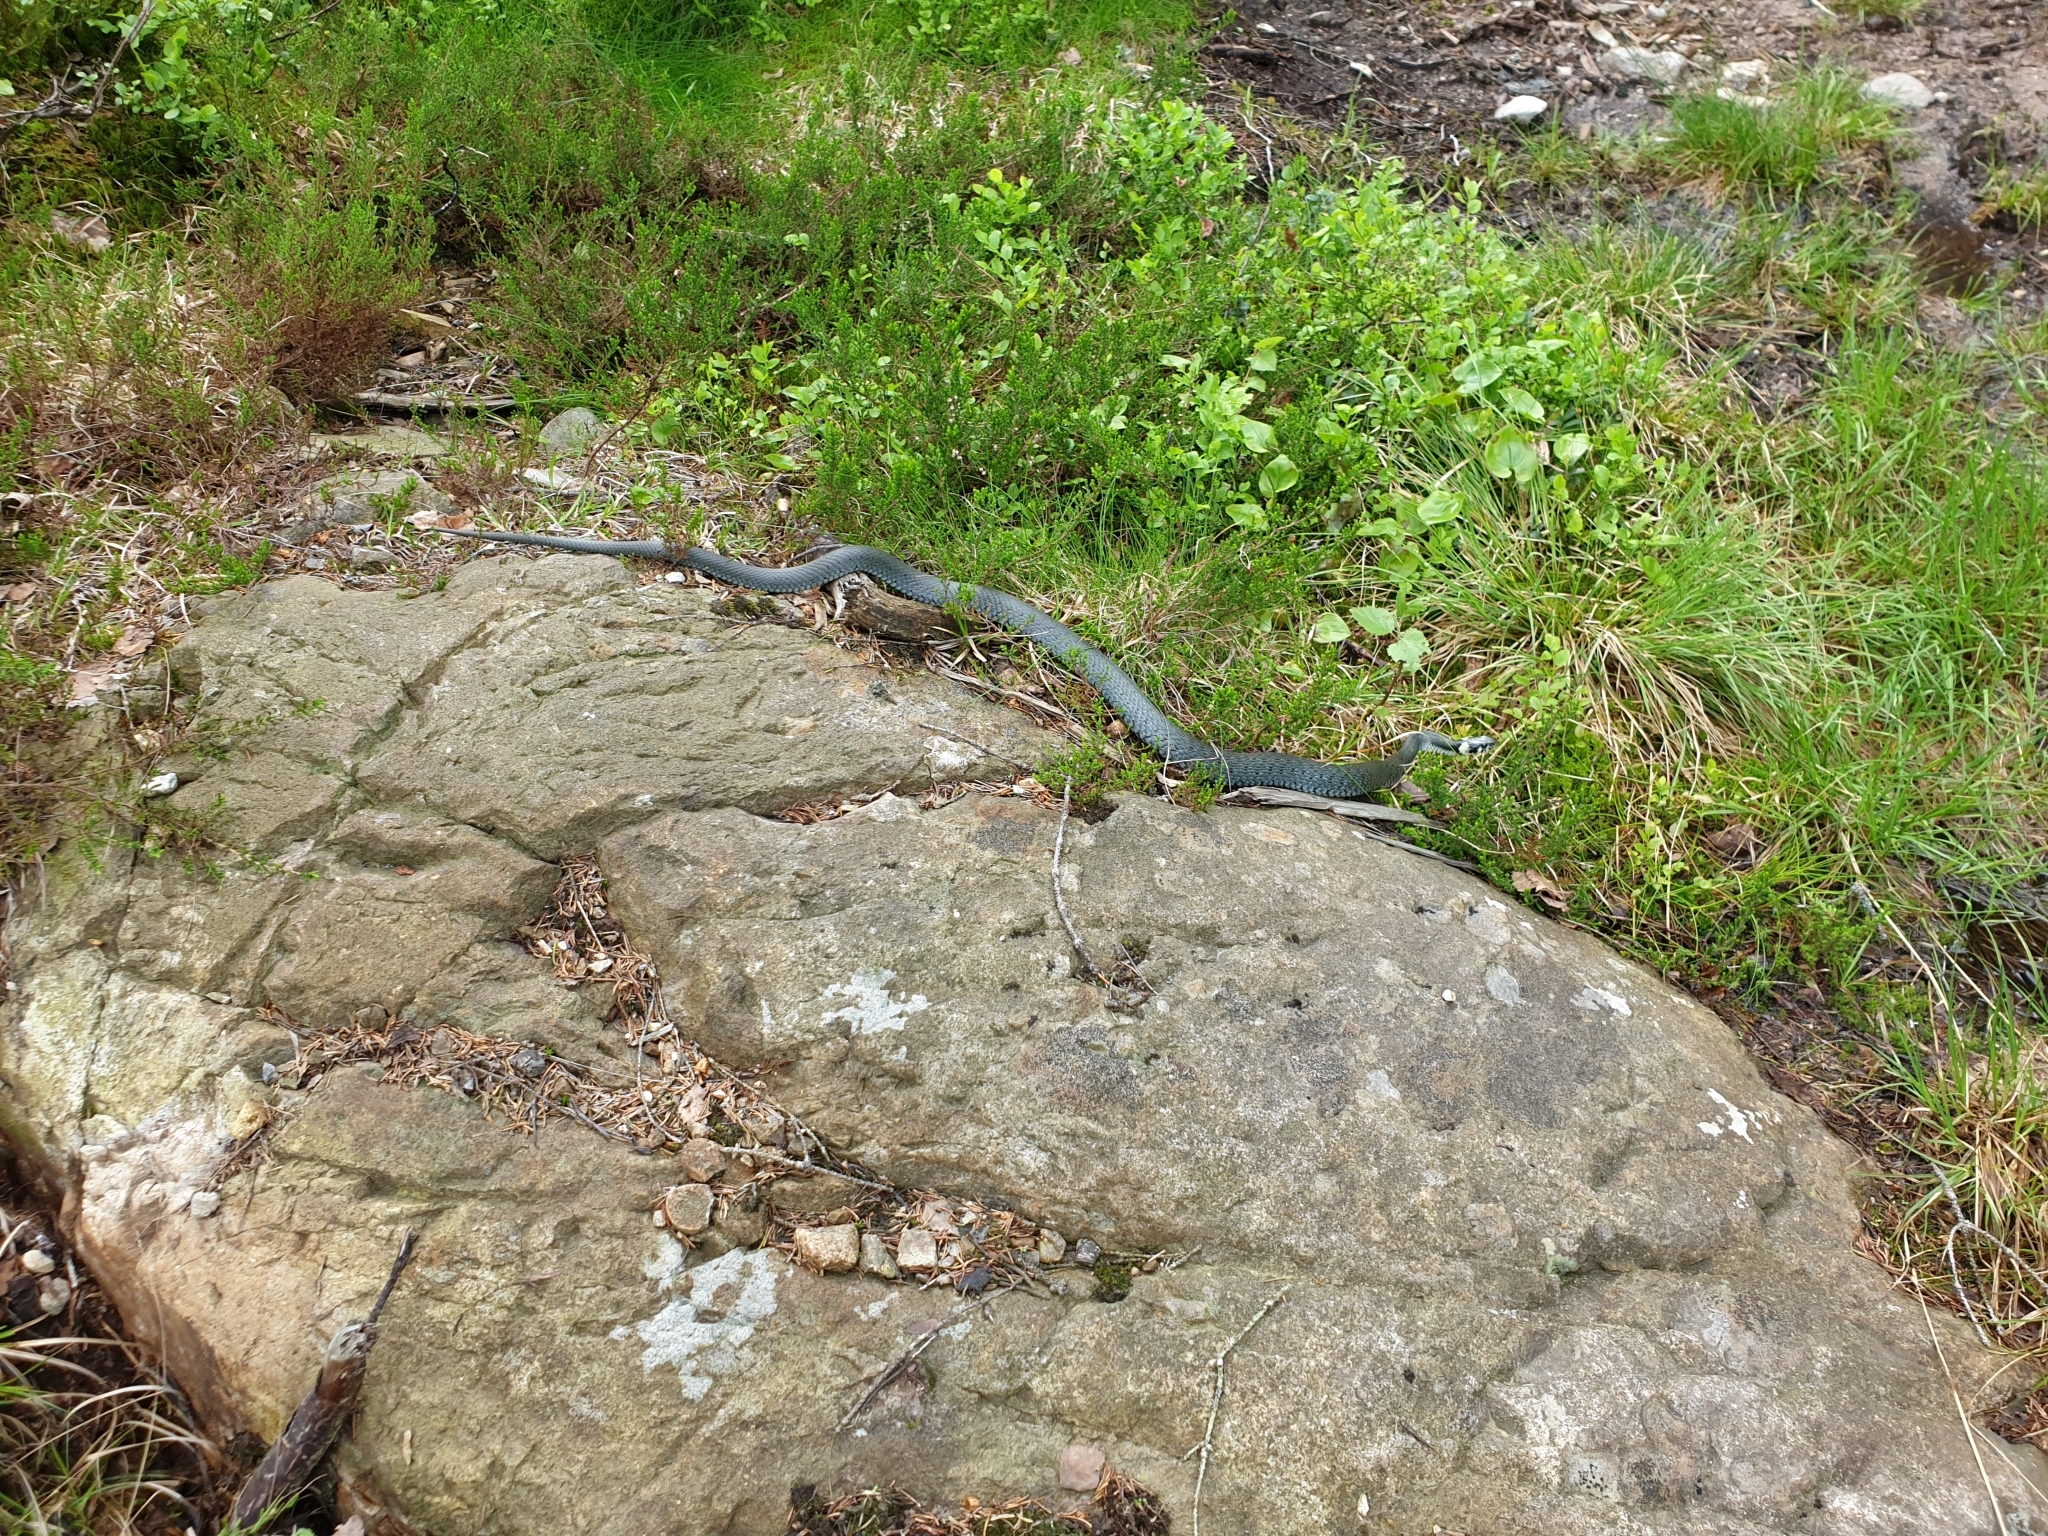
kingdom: Animalia
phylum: Chordata
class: Squamata
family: Colubridae
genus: Natrix
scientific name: Natrix natrix
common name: Grass snake
